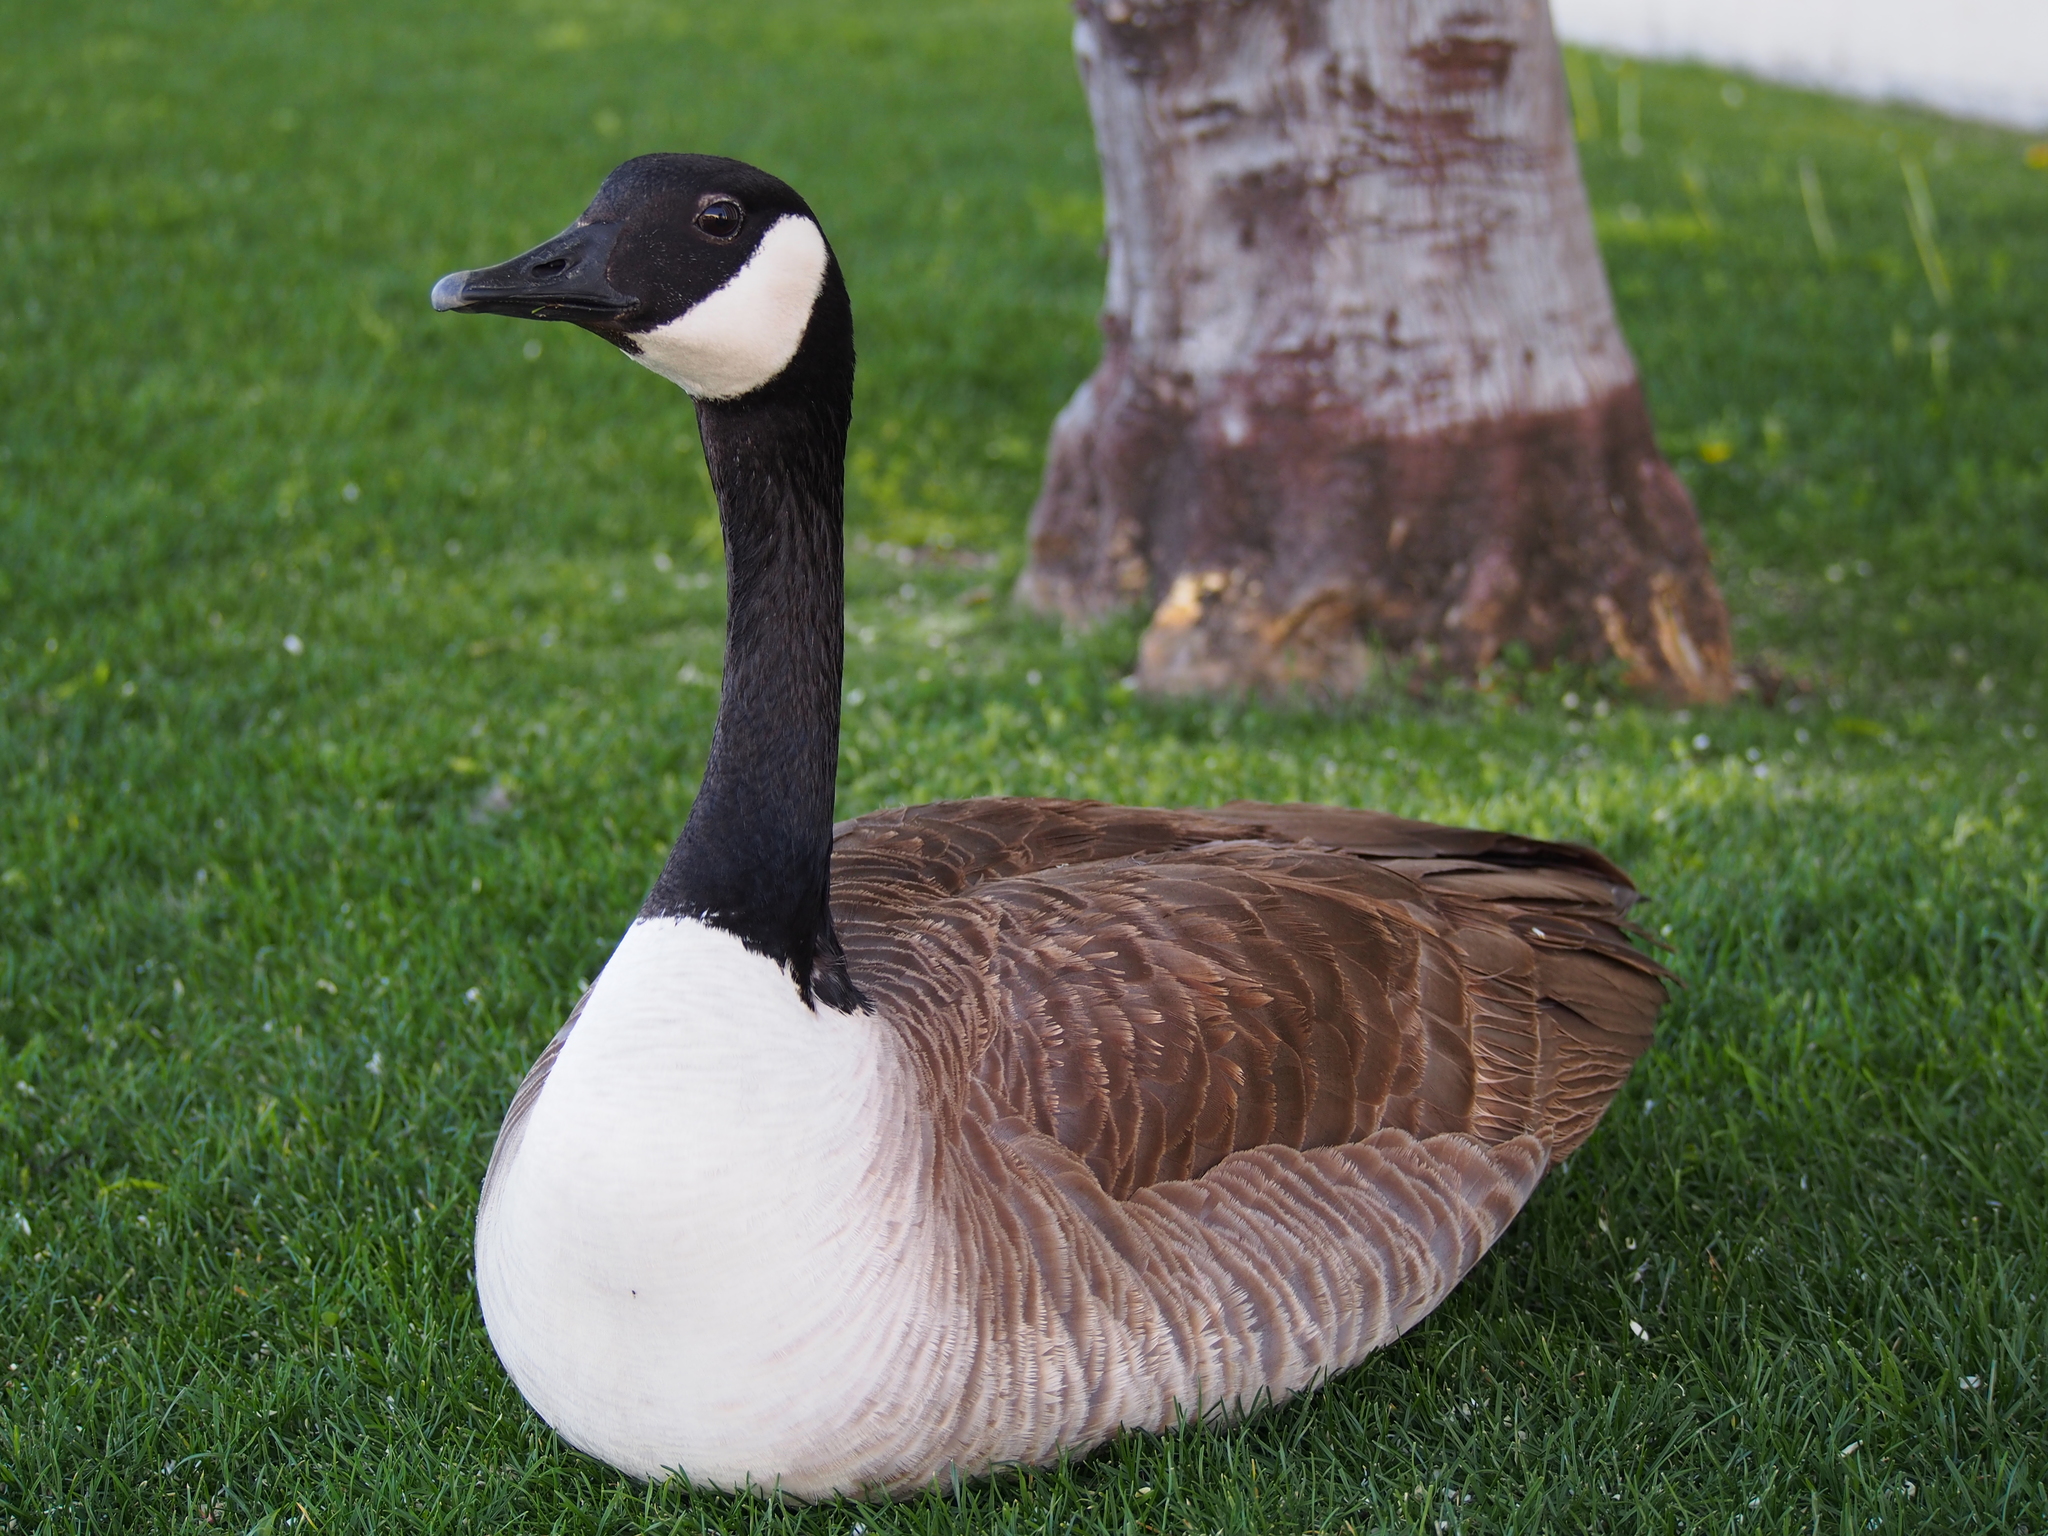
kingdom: Animalia
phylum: Chordata
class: Aves
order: Anseriformes
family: Anatidae
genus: Branta
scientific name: Branta canadensis
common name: Canada goose
